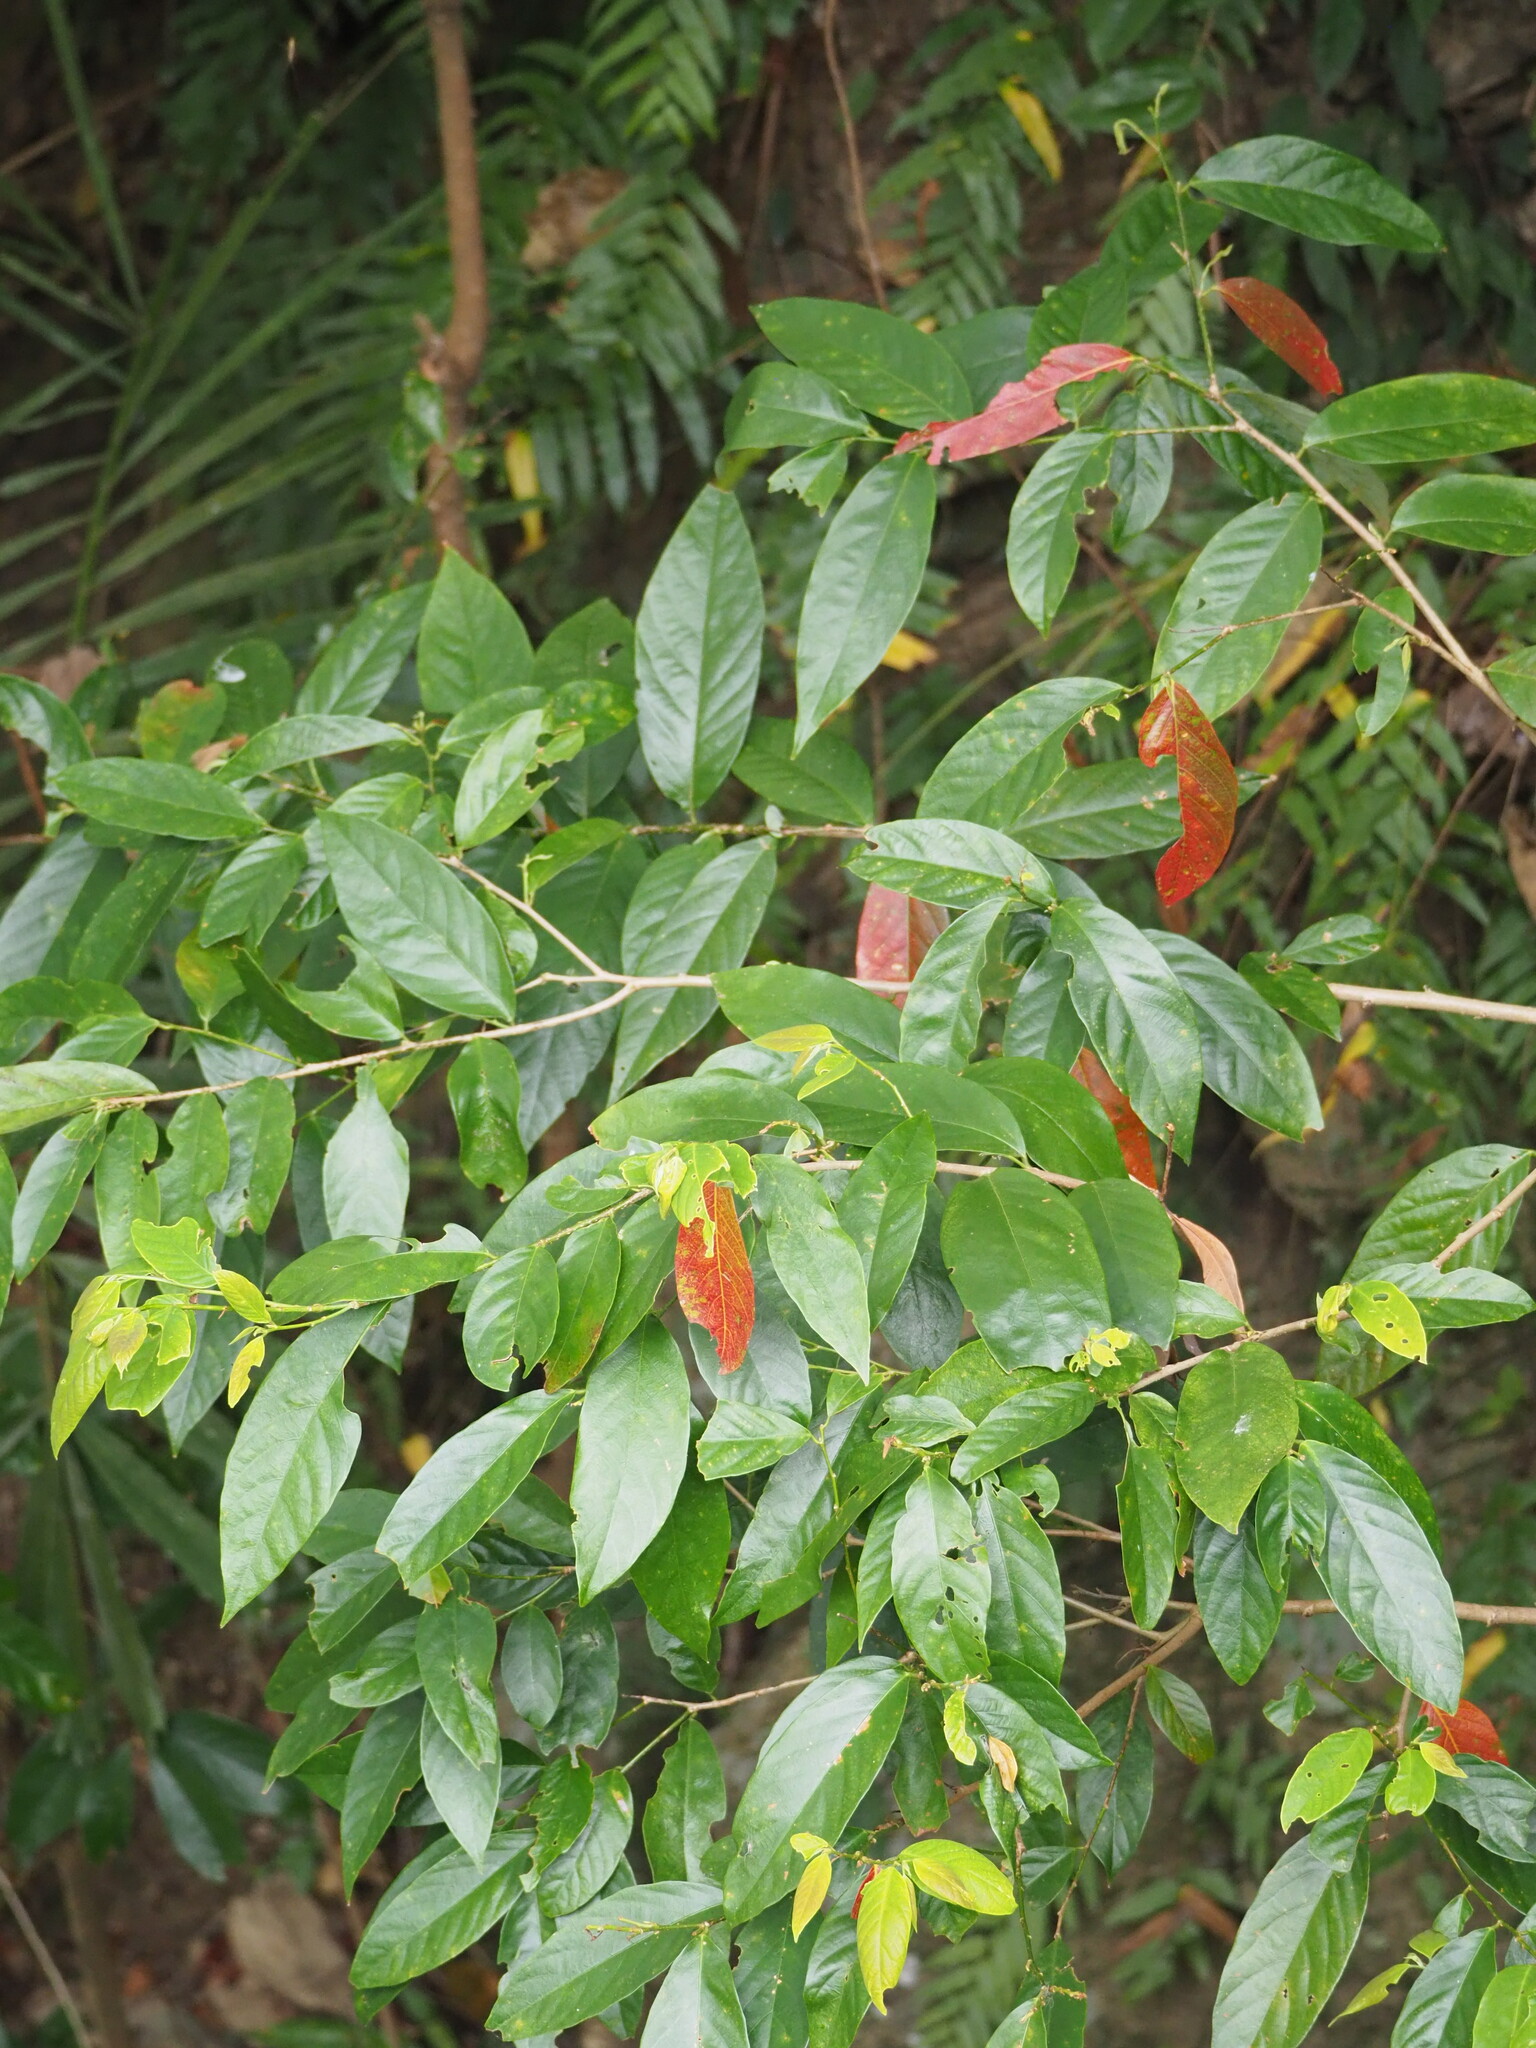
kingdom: Plantae
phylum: Tracheophyta
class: Magnoliopsida
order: Malpighiales
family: Phyllanthaceae
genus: Bridelia
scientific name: Bridelia balansae
